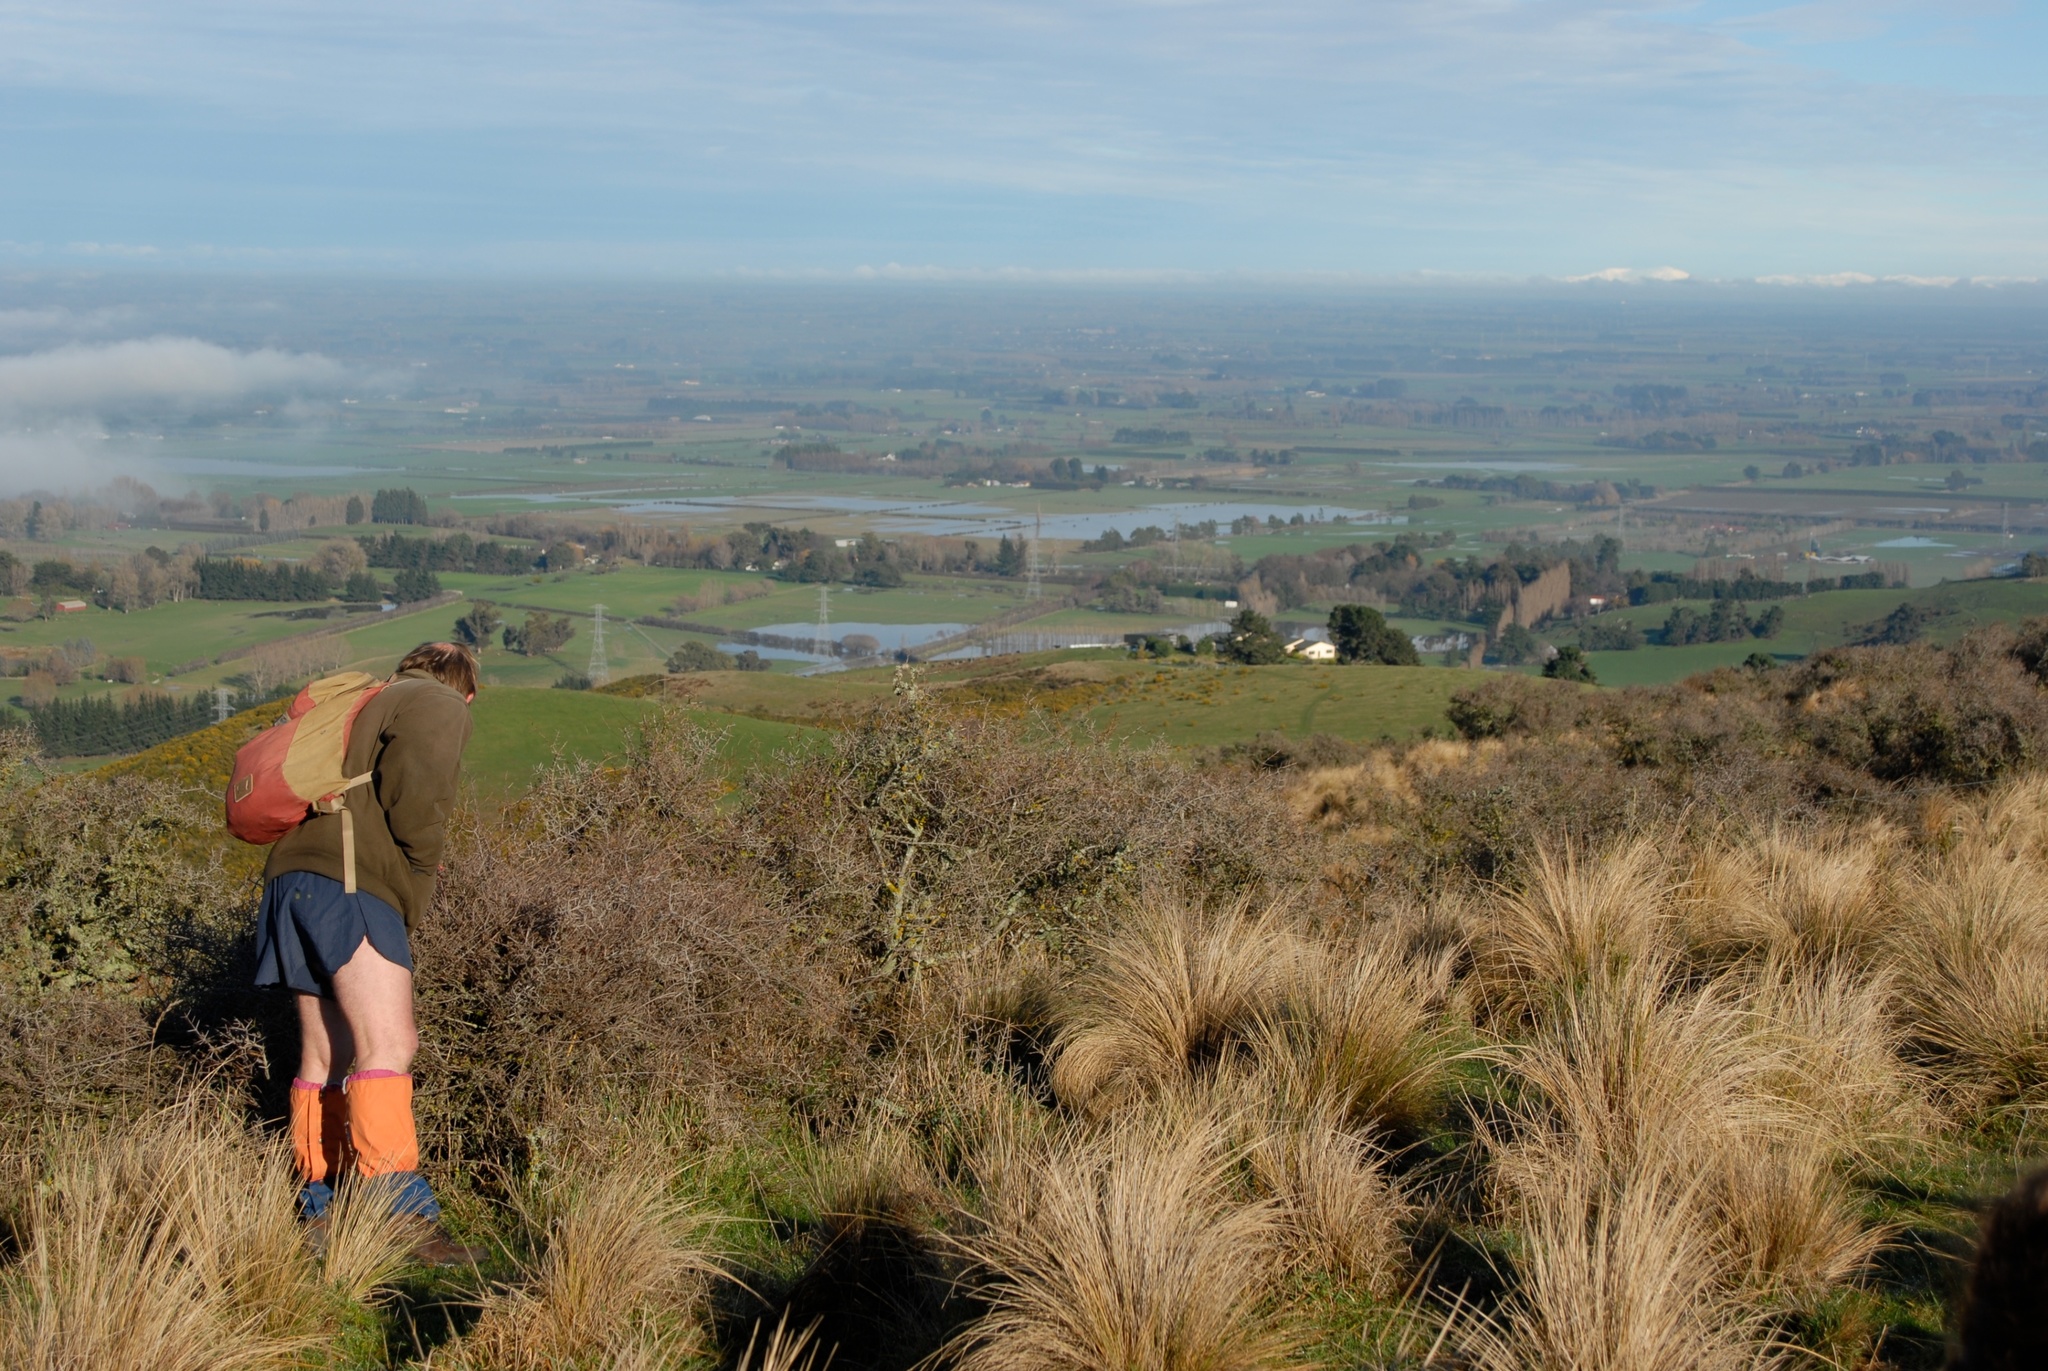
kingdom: Plantae
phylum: Tracheophyta
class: Magnoliopsida
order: Rosales
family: Rhamnaceae
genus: Discaria
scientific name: Discaria toumatou
